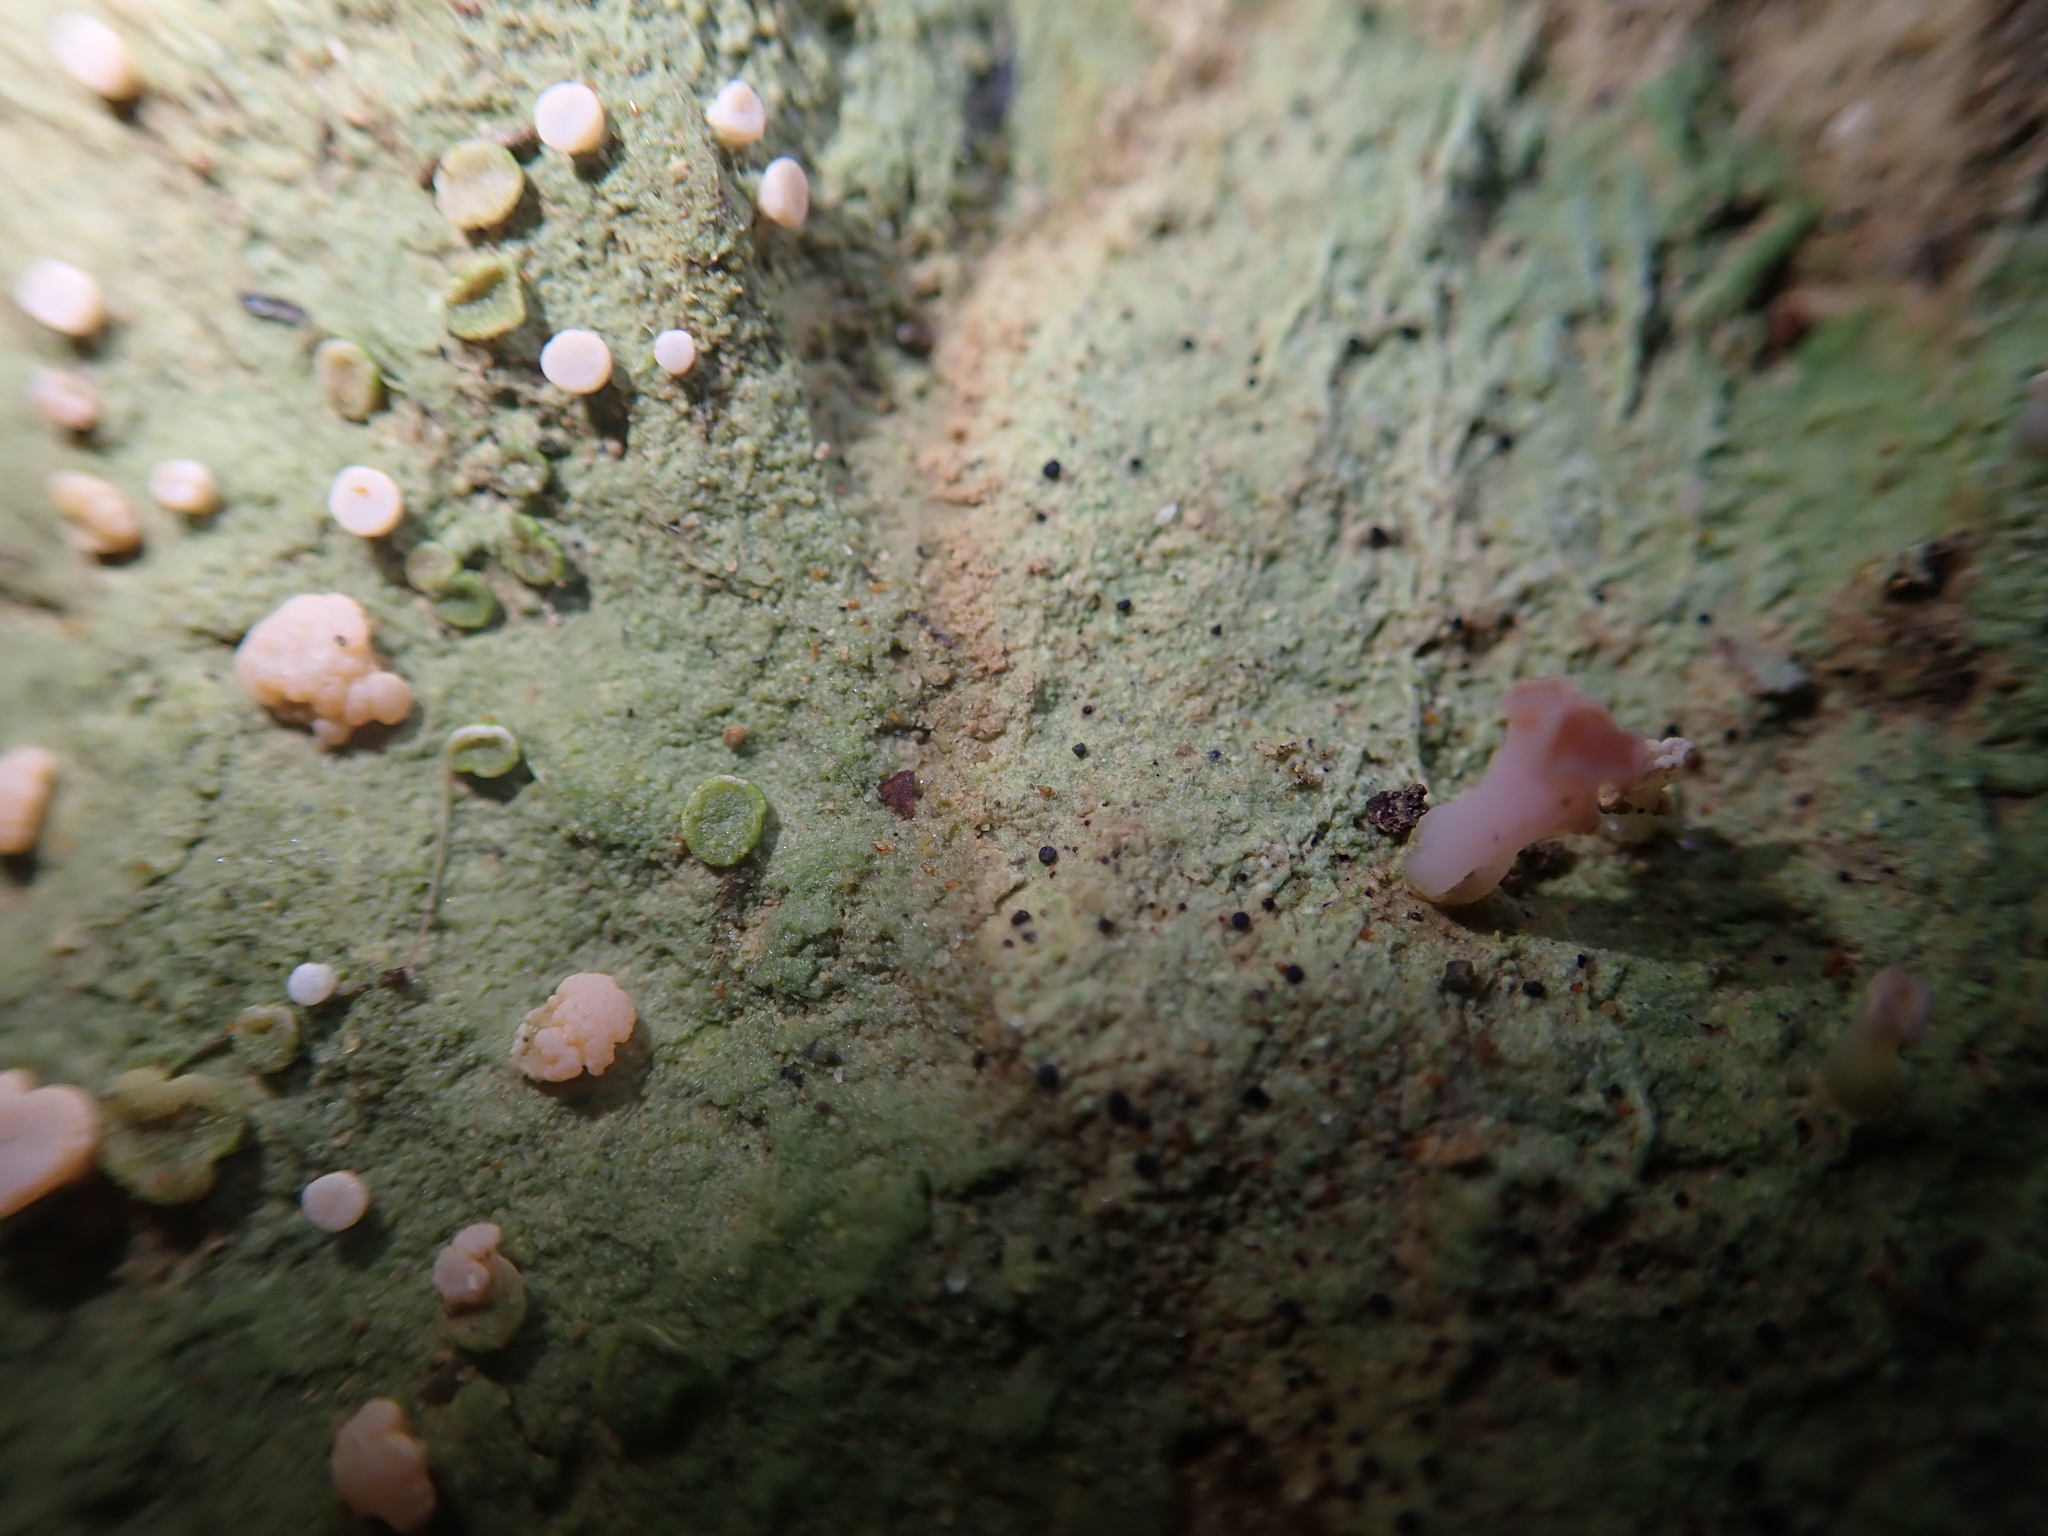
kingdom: Fungi
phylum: Ascomycota
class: Lecanoromycetes
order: Pertusariales
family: Icmadophilaceae
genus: Dibaeis
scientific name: Dibaeis absoluta
